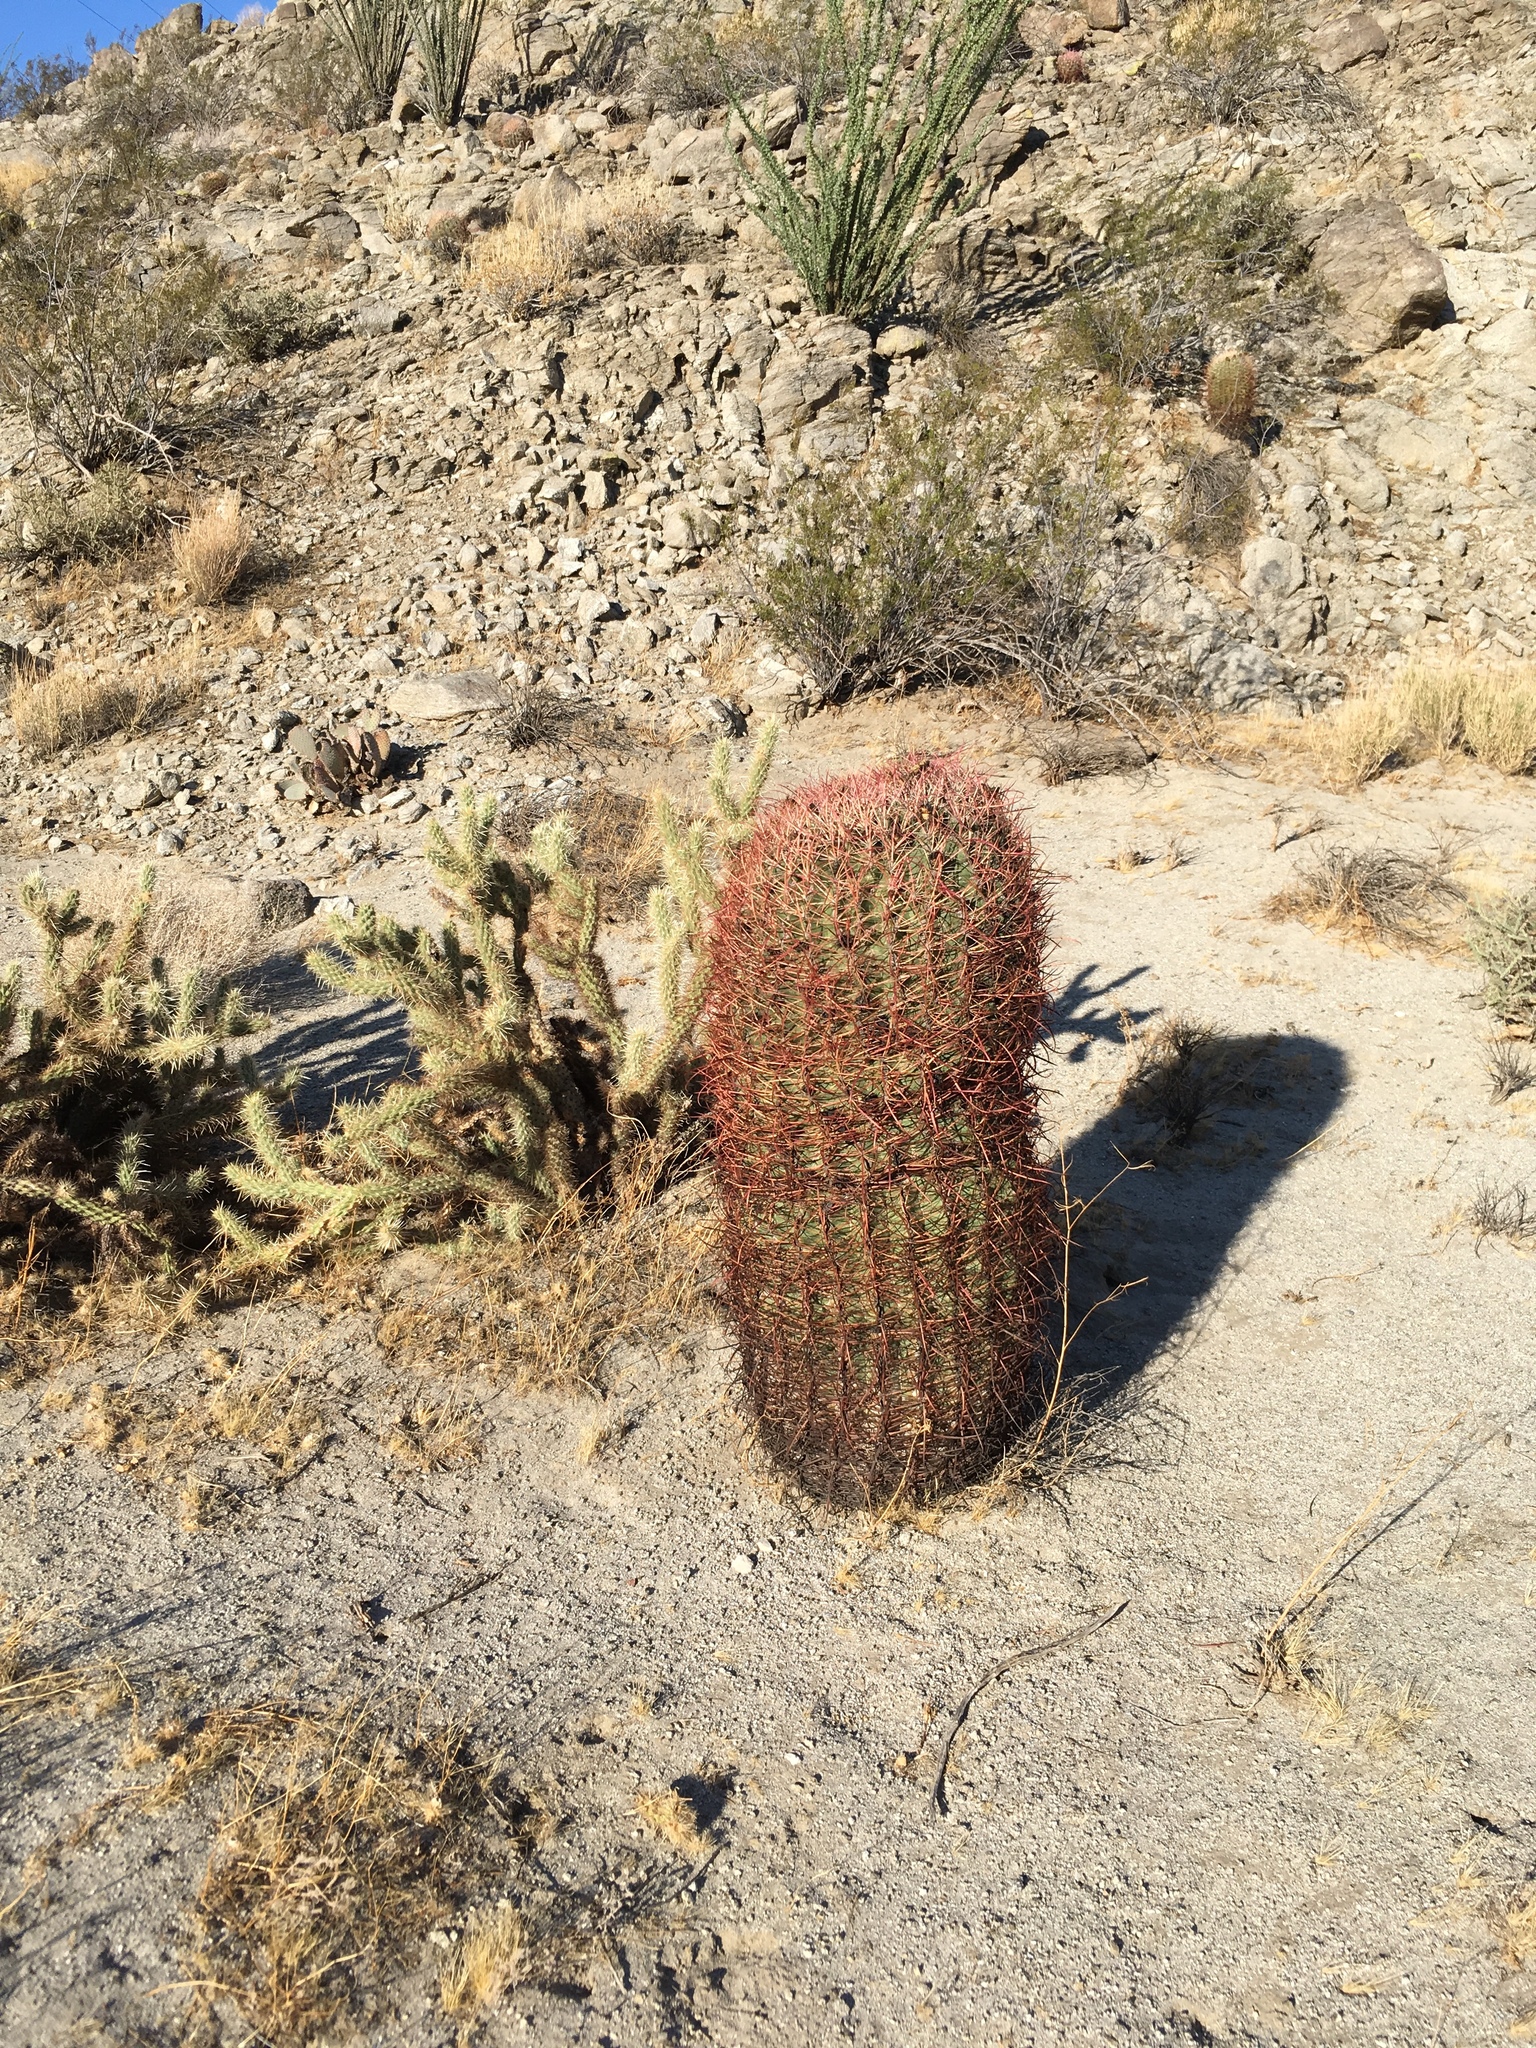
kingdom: Plantae
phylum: Tracheophyta
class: Magnoliopsida
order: Caryophyllales
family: Cactaceae
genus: Ferocactus
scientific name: Ferocactus cylindraceus
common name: California barrel cactus
